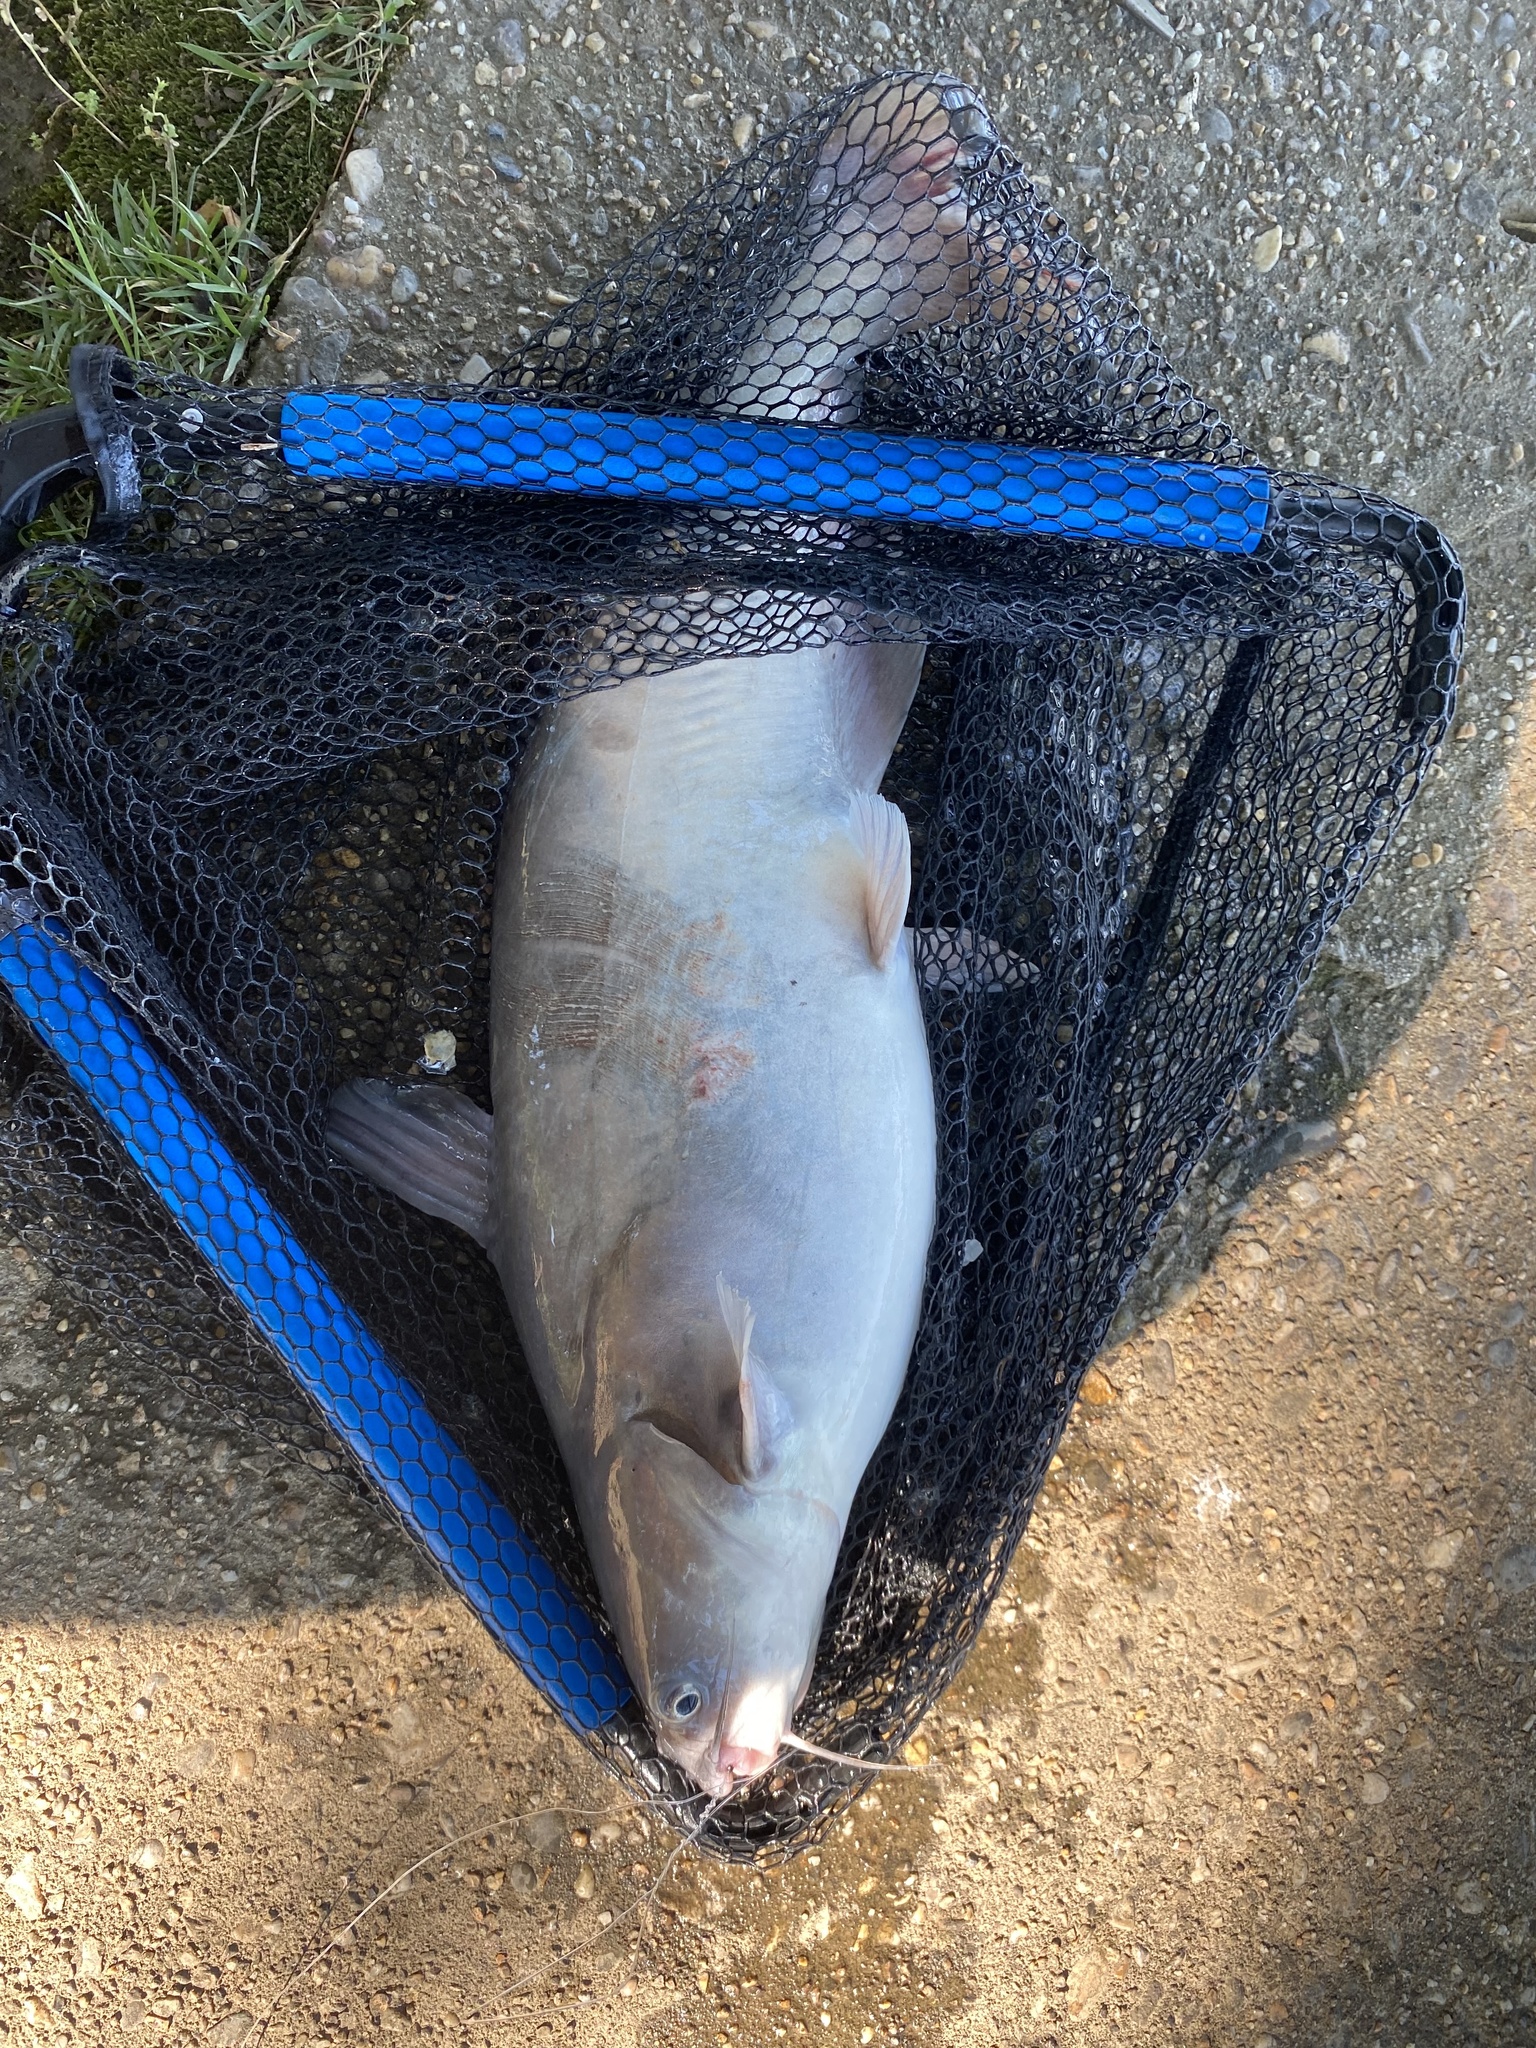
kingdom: Animalia
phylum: Chordata
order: Siluriformes
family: Ictaluridae
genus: Ictalurus
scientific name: Ictalurus furcatus
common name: Blue catfish
